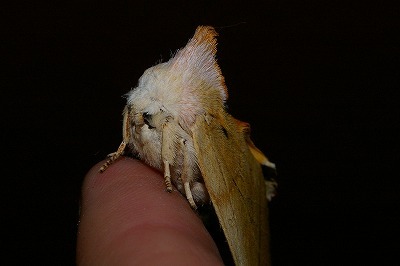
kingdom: Animalia
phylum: Arthropoda
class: Insecta
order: Lepidoptera
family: Notodontidae
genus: Euhampsonia
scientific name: Euhampsonia cristata
